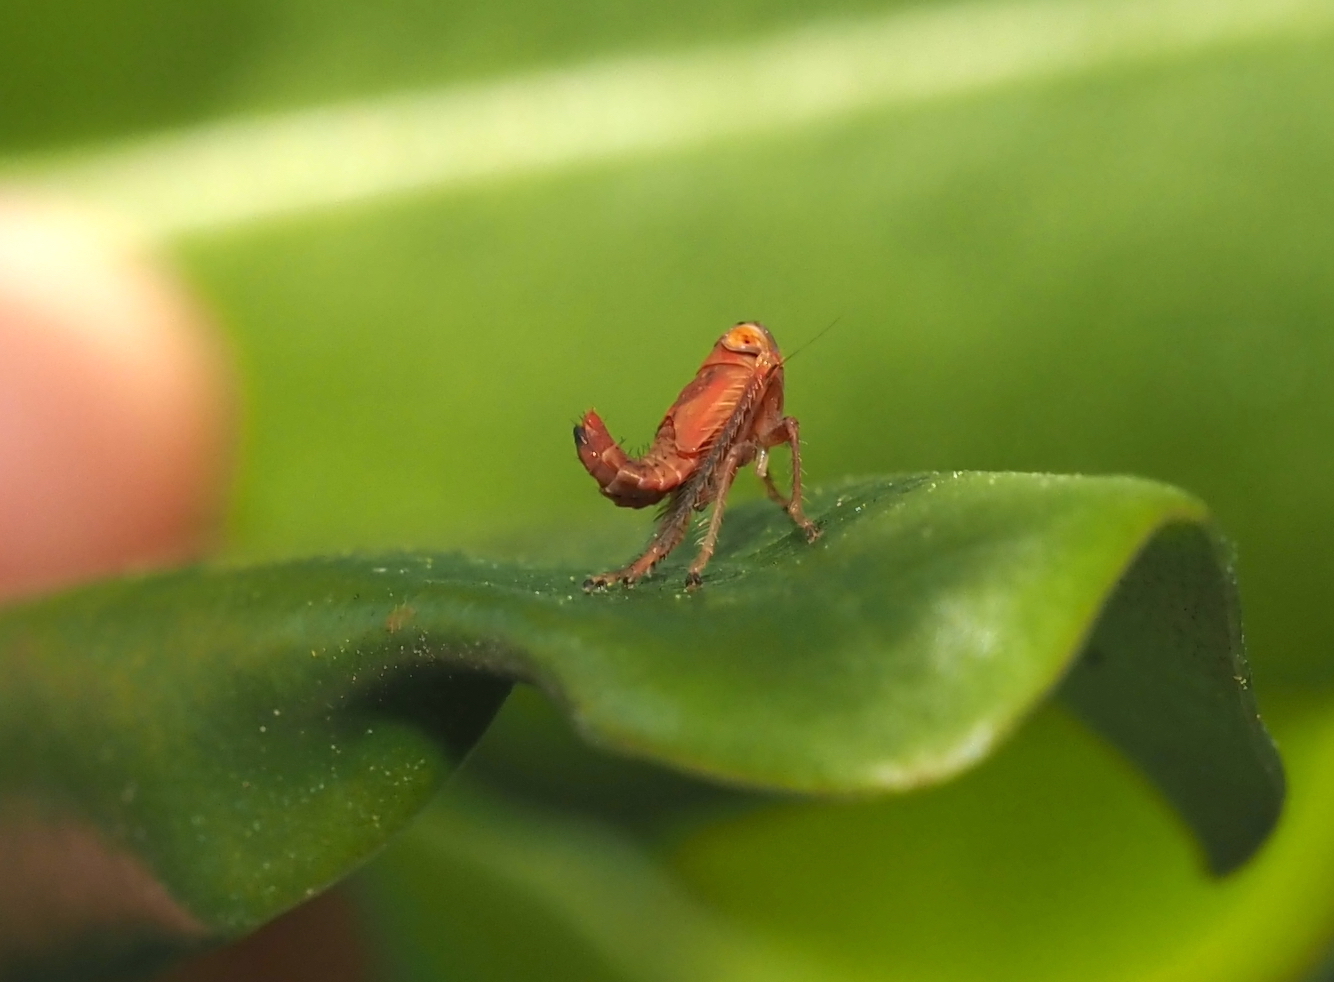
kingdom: Animalia
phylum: Arthropoda
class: Insecta
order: Hemiptera
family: Cicadellidae
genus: Jikradia
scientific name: Jikradia olitoria
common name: Coppery leafhopper
